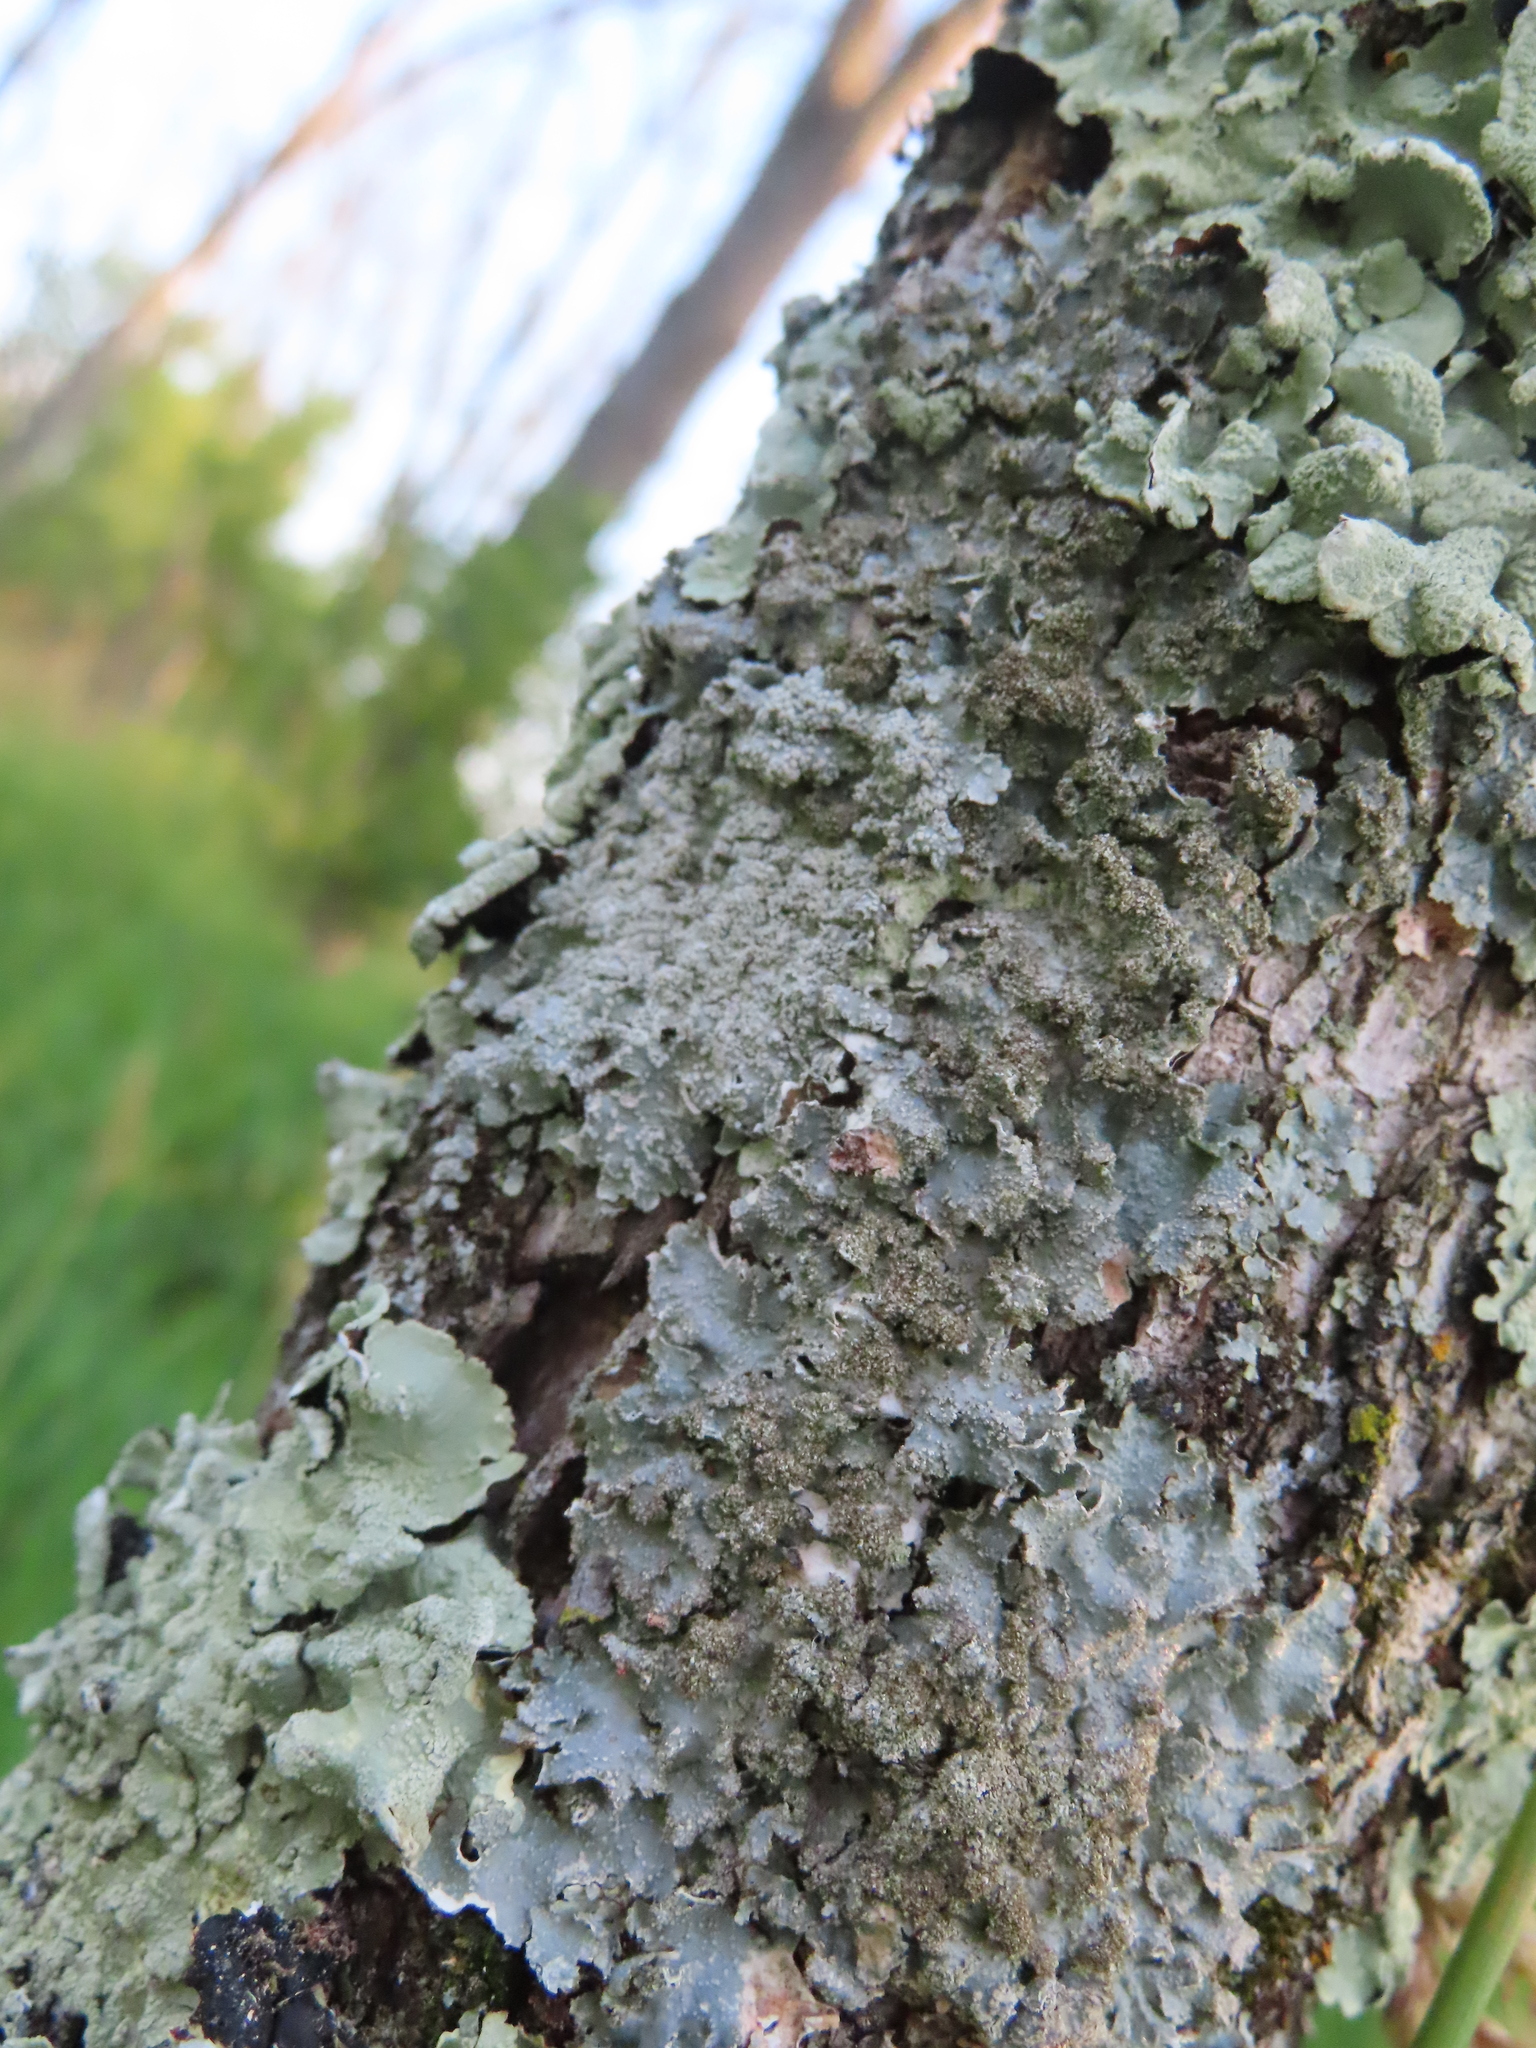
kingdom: Fungi
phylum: Ascomycota
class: Lecanoromycetes
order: Lecanorales
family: Parmeliaceae
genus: Punctelia
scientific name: Punctelia rudecta
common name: Rough speckled shield lichen
